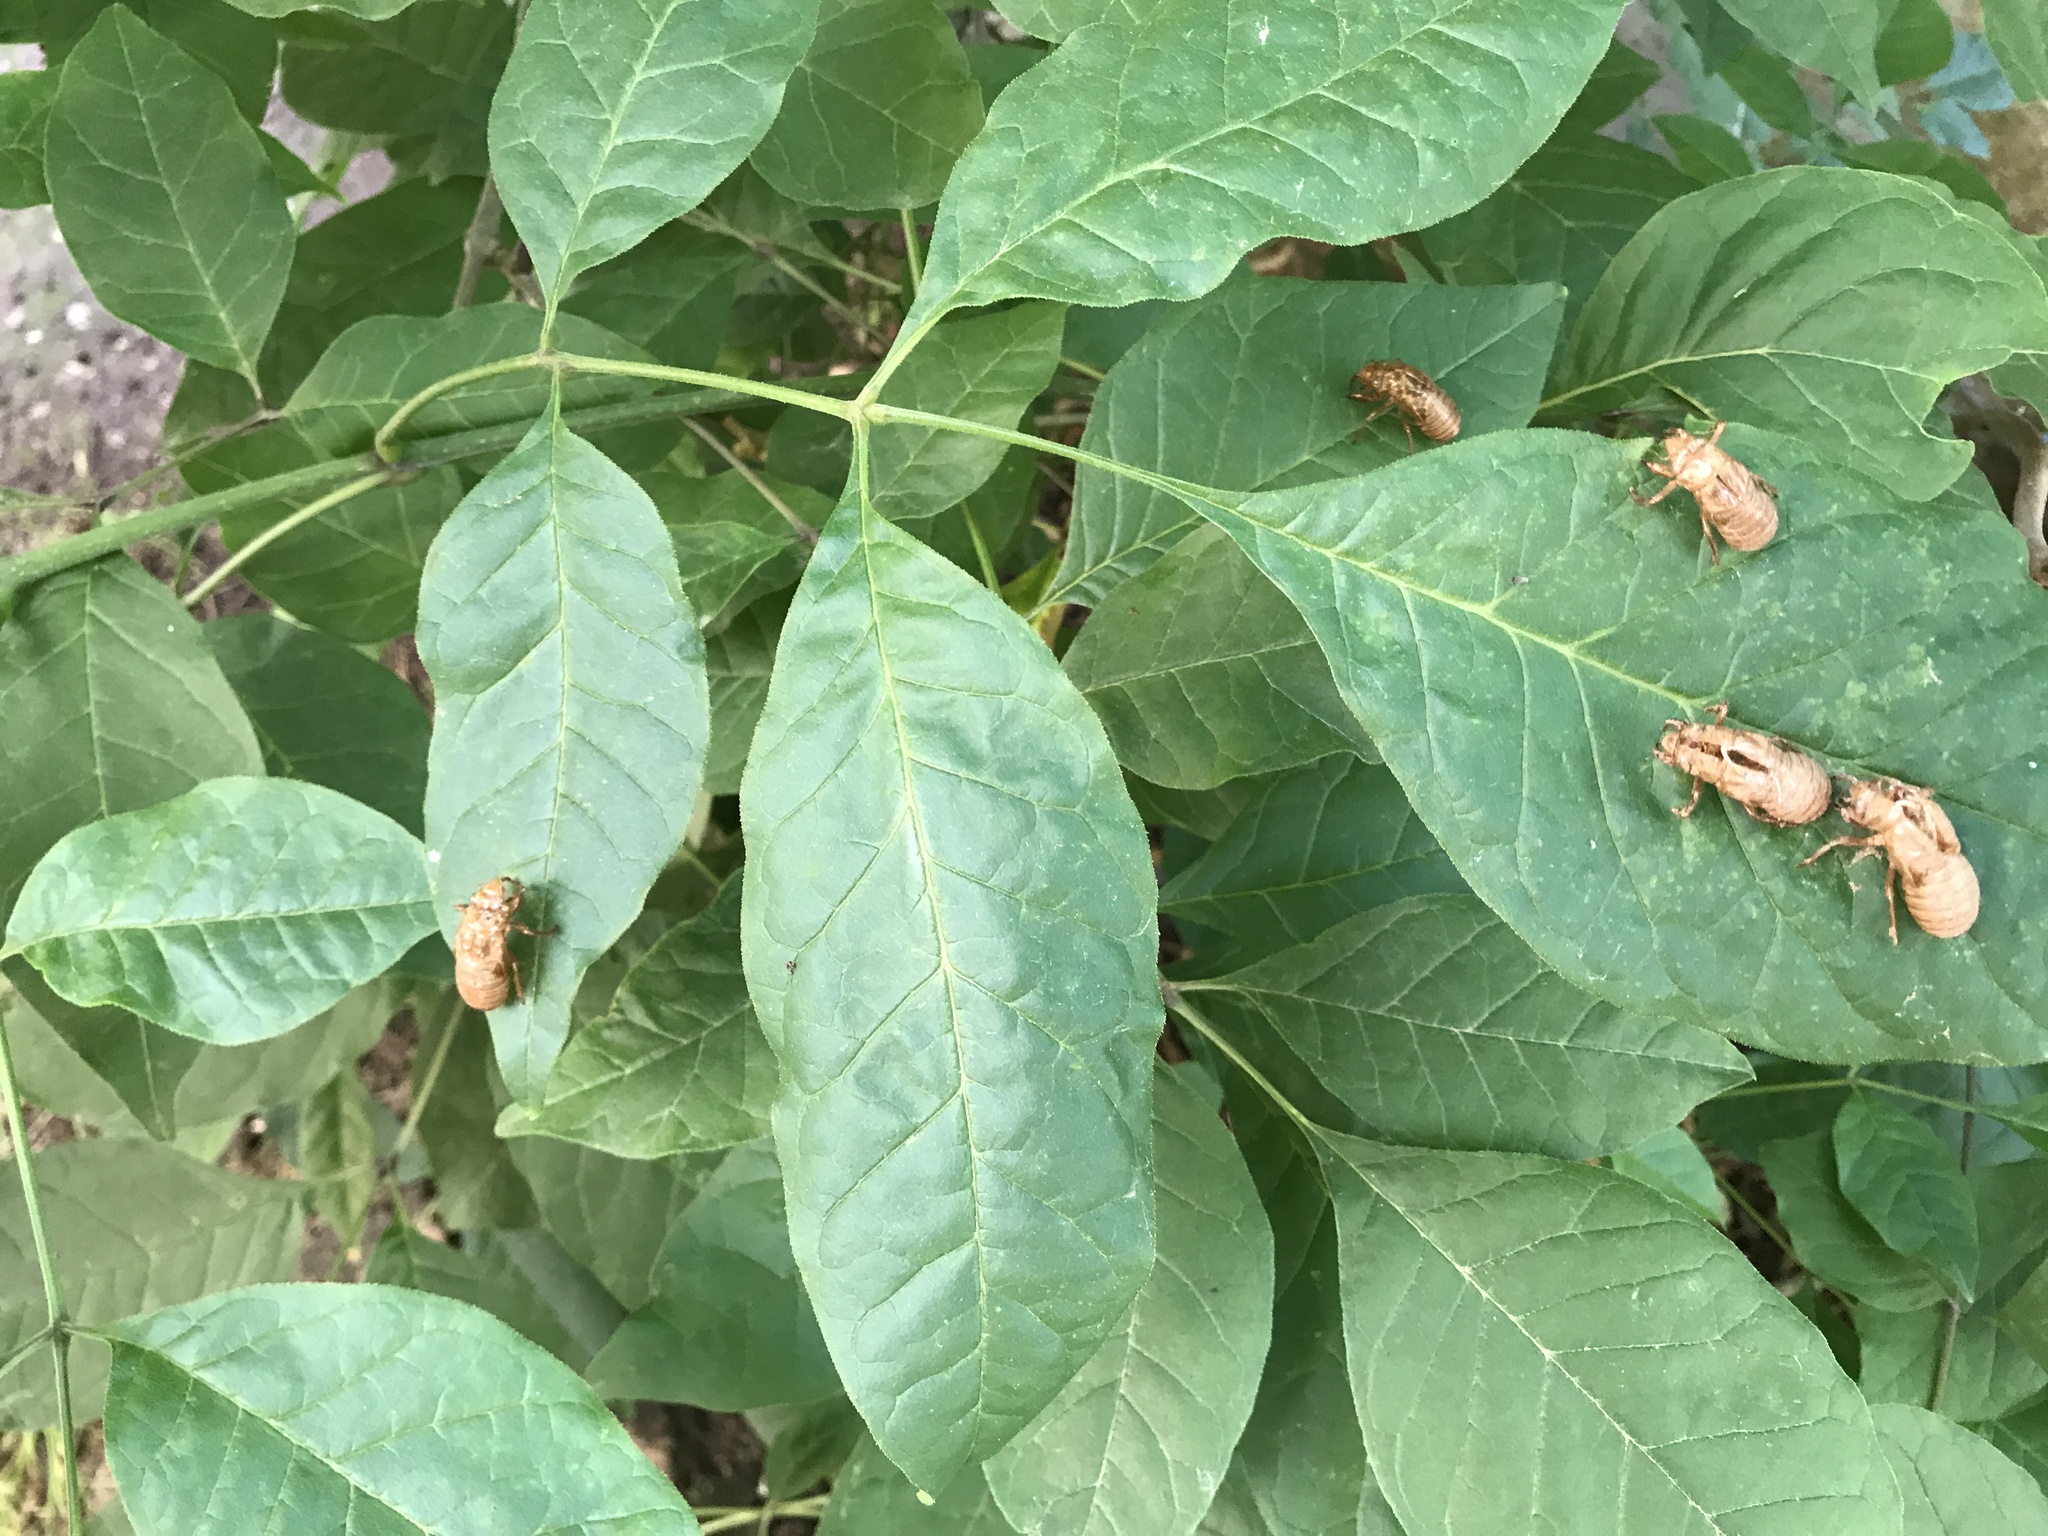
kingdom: Animalia
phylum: Arthropoda
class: Insecta
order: Hemiptera
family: Cicadidae
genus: Magicicada
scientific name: Magicicada
